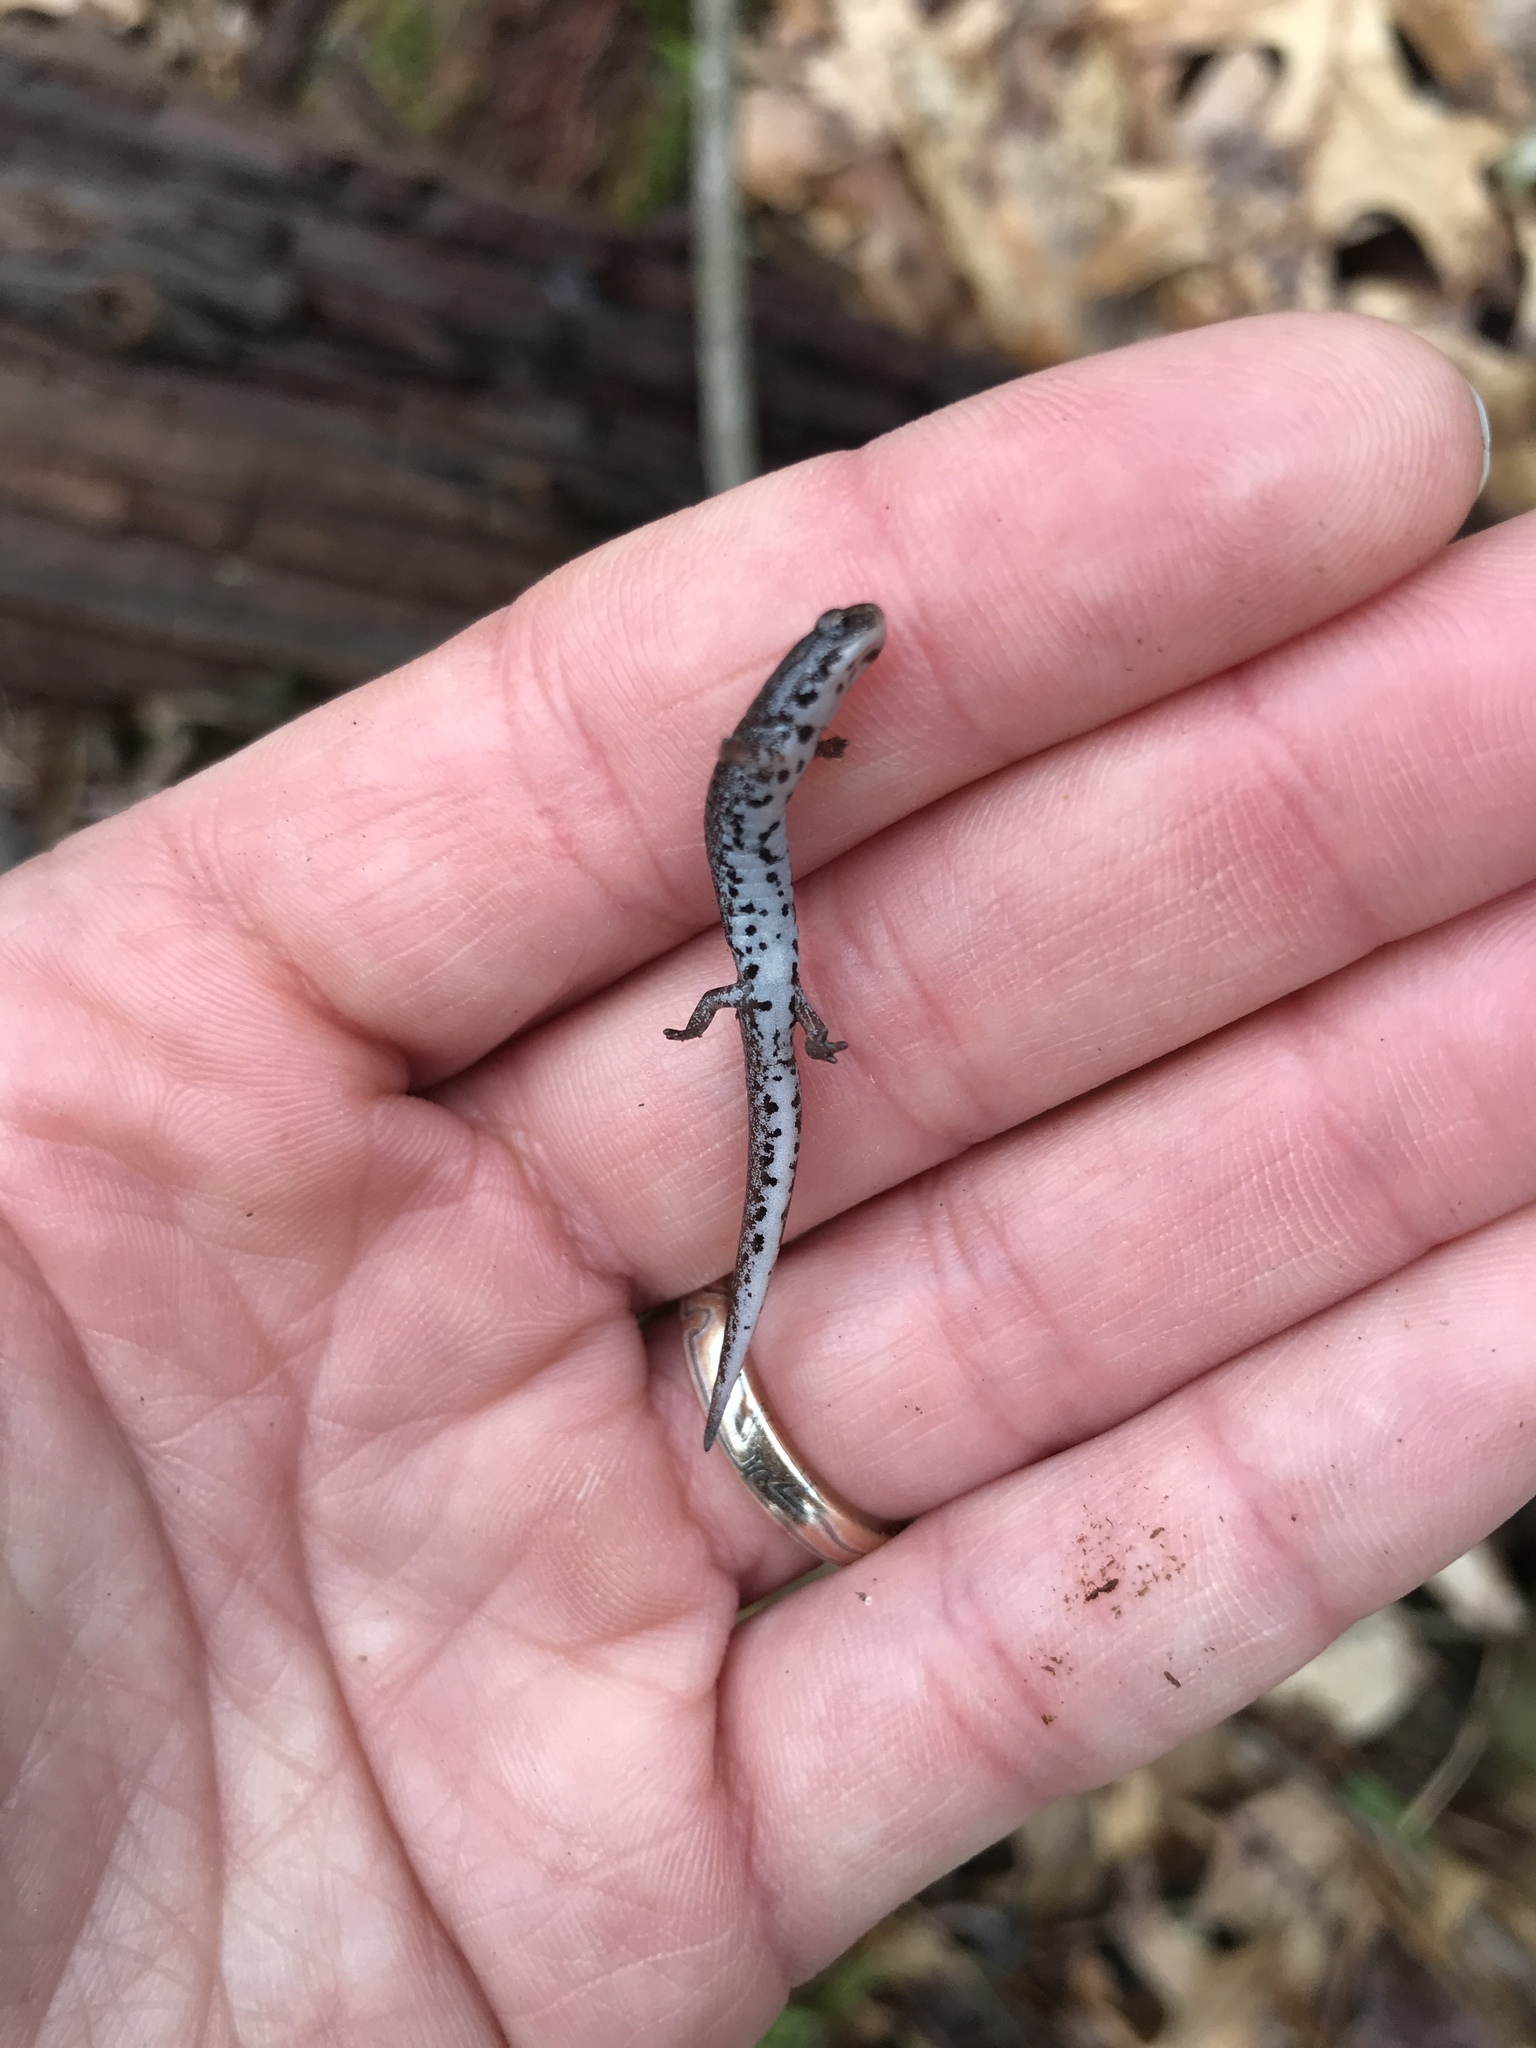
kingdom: Animalia
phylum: Chordata
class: Amphibia
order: Caudata
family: Plethodontidae
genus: Hemidactylium
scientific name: Hemidactylium scutatum
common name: Four-toed salamander
